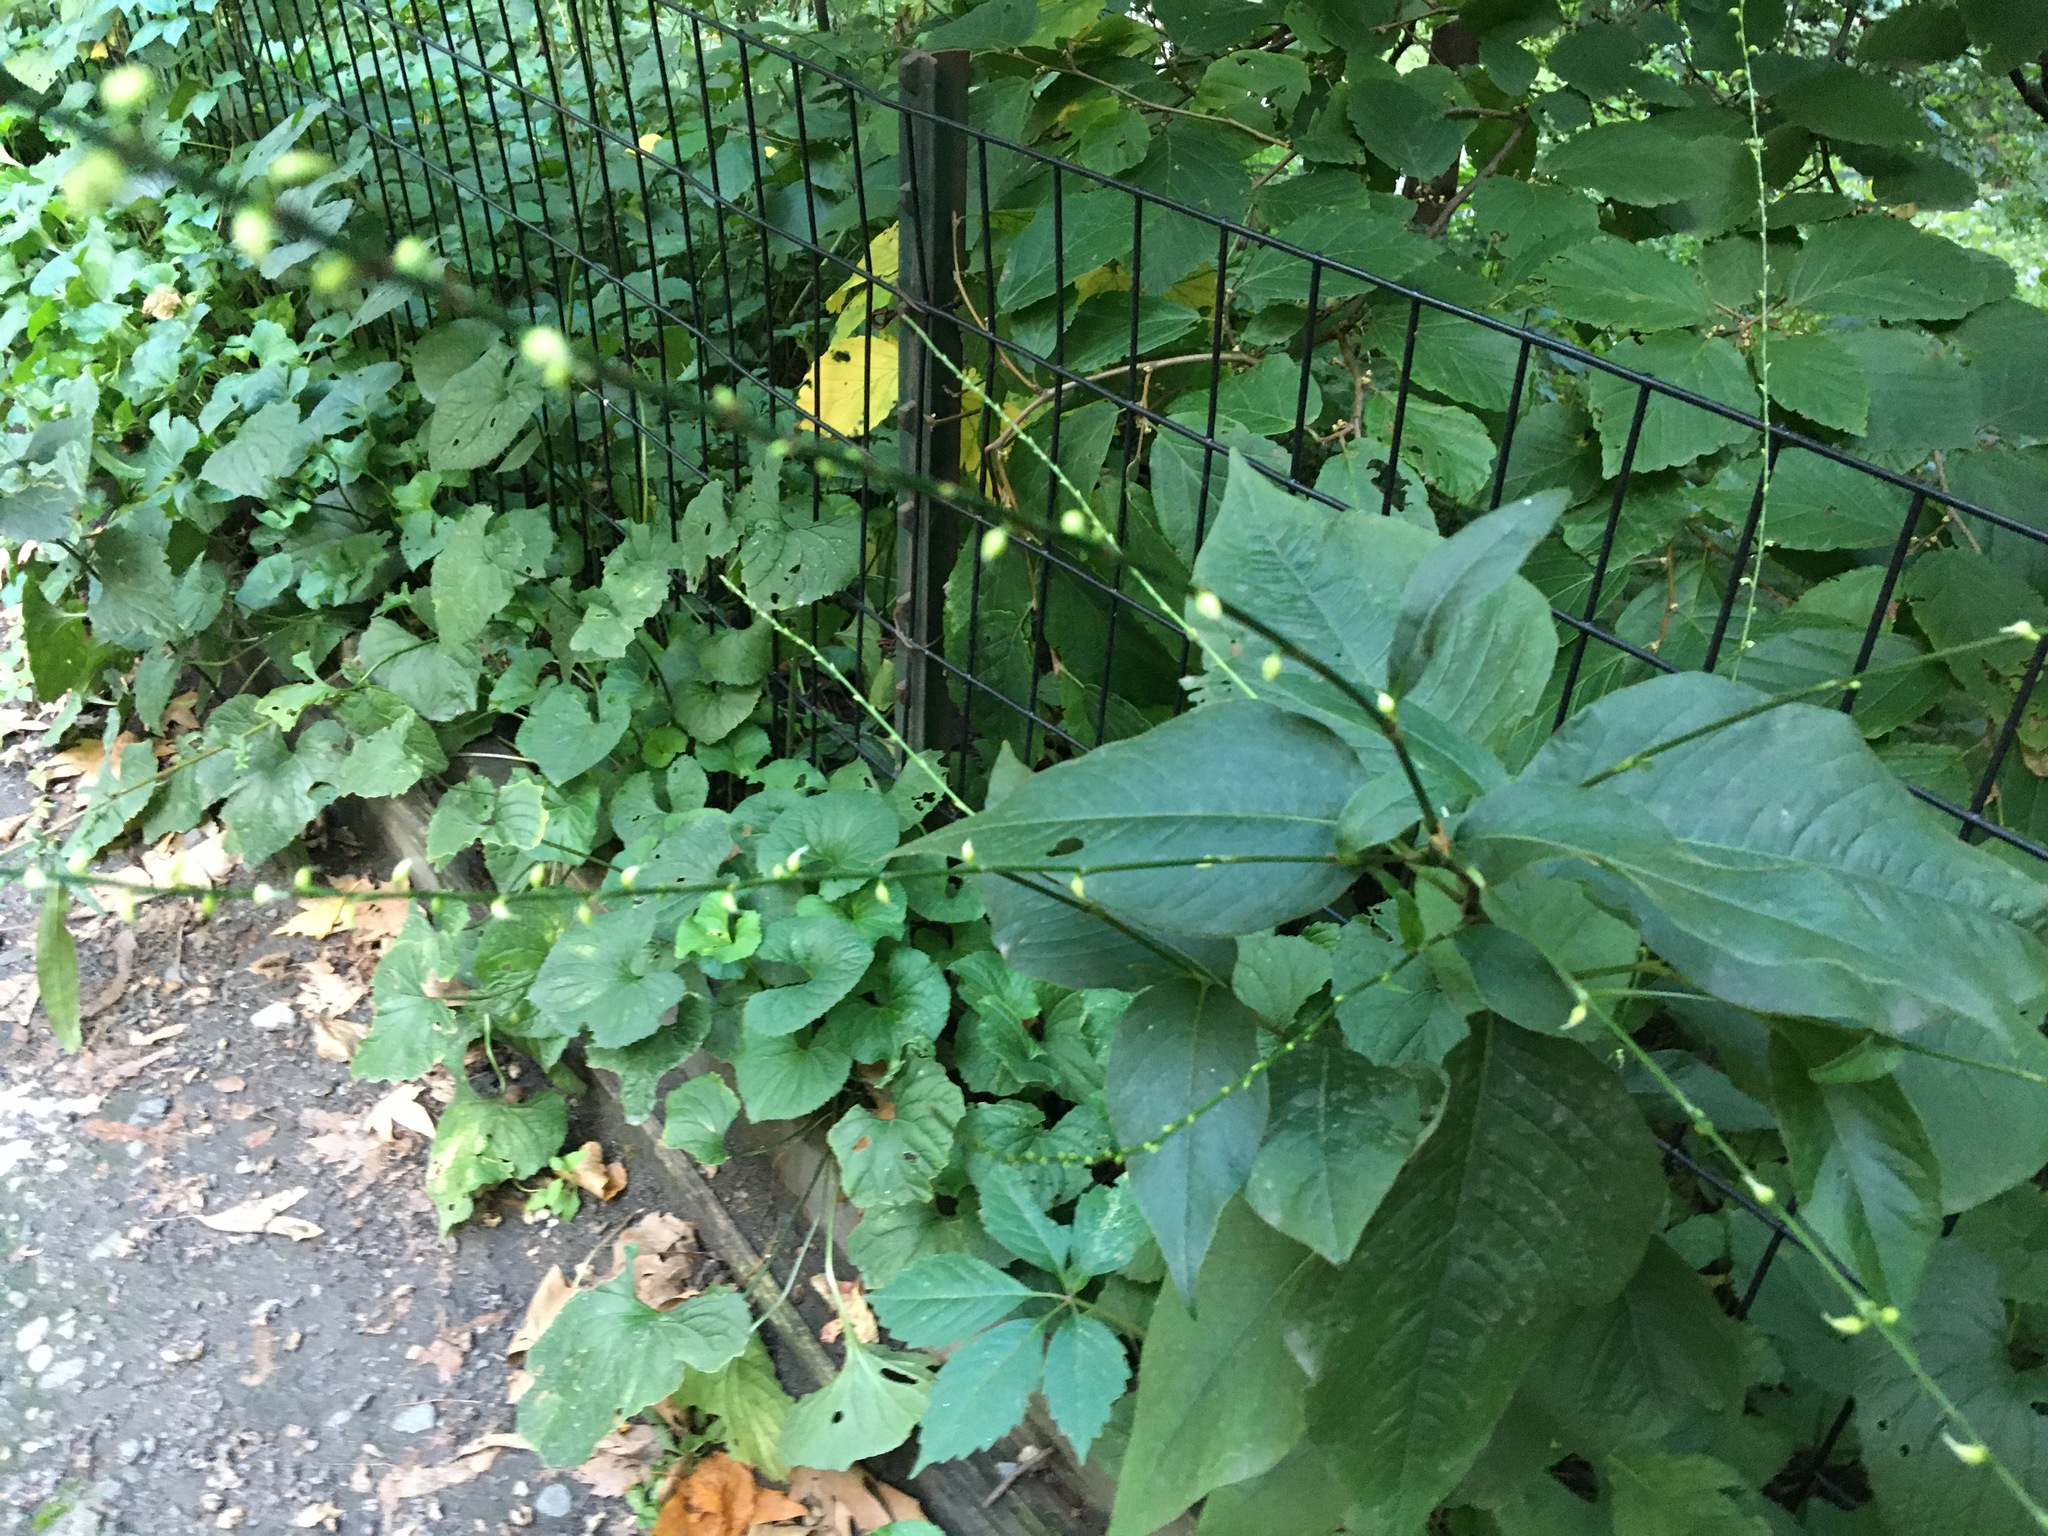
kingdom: Plantae
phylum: Tracheophyta
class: Magnoliopsida
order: Caryophyllales
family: Polygonaceae
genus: Persicaria
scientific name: Persicaria virginiana
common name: Jumpseed
